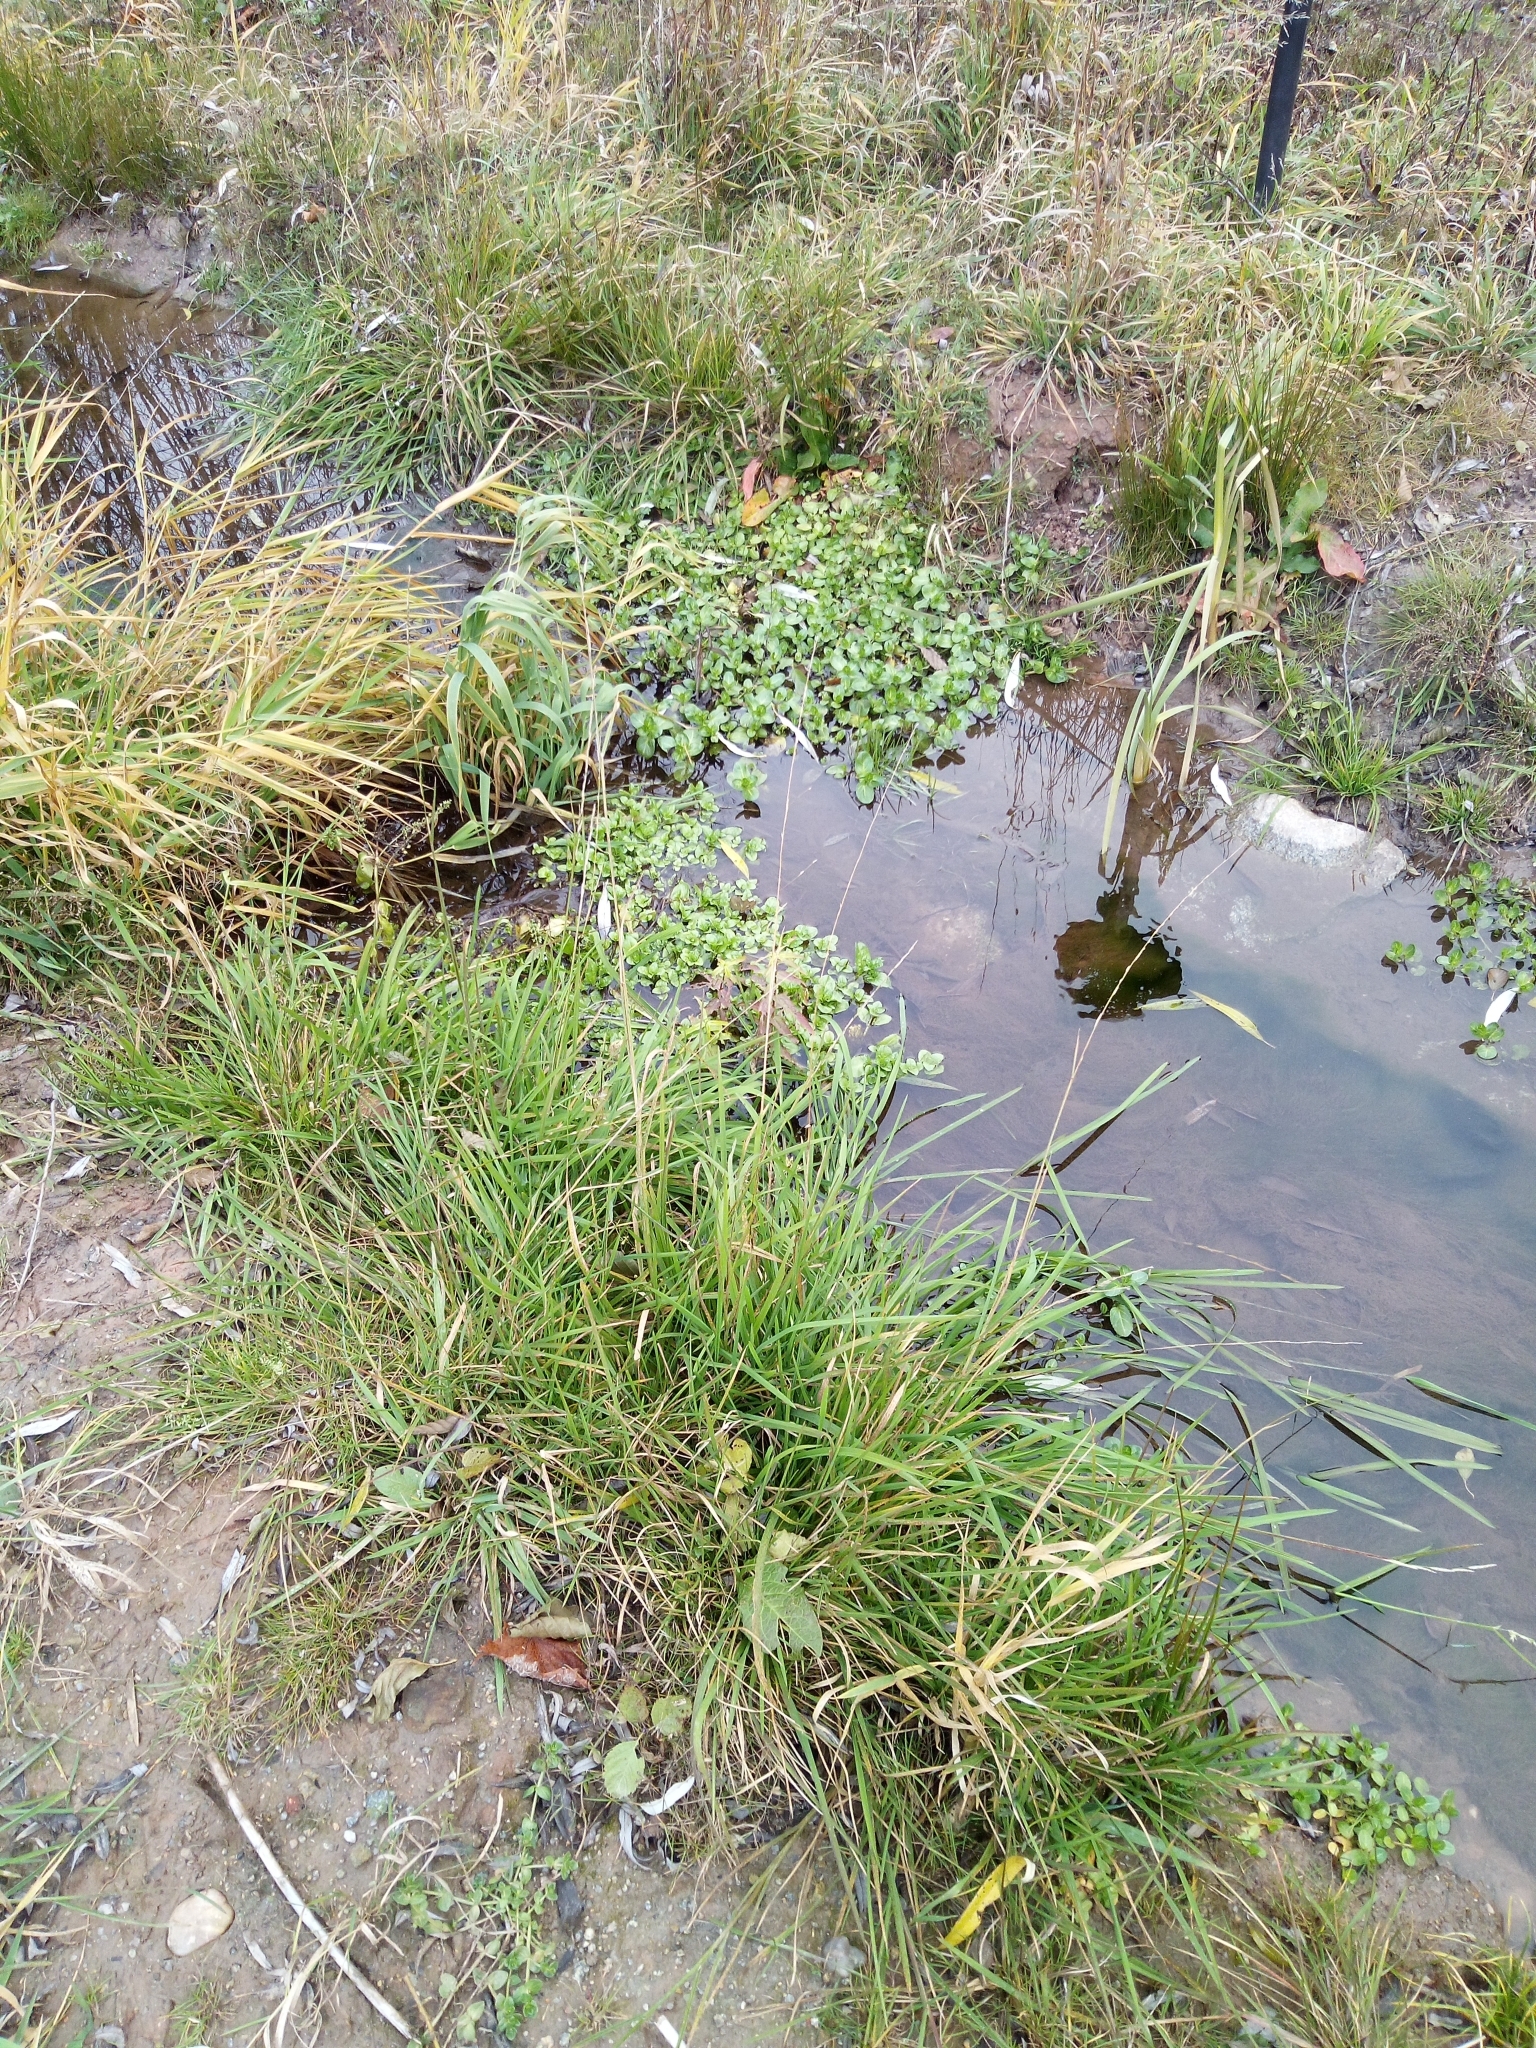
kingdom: Plantae
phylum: Tracheophyta
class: Liliopsida
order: Poales
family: Poaceae
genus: Glyceria
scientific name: Glyceria fluitans
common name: Floating sweet-grass
